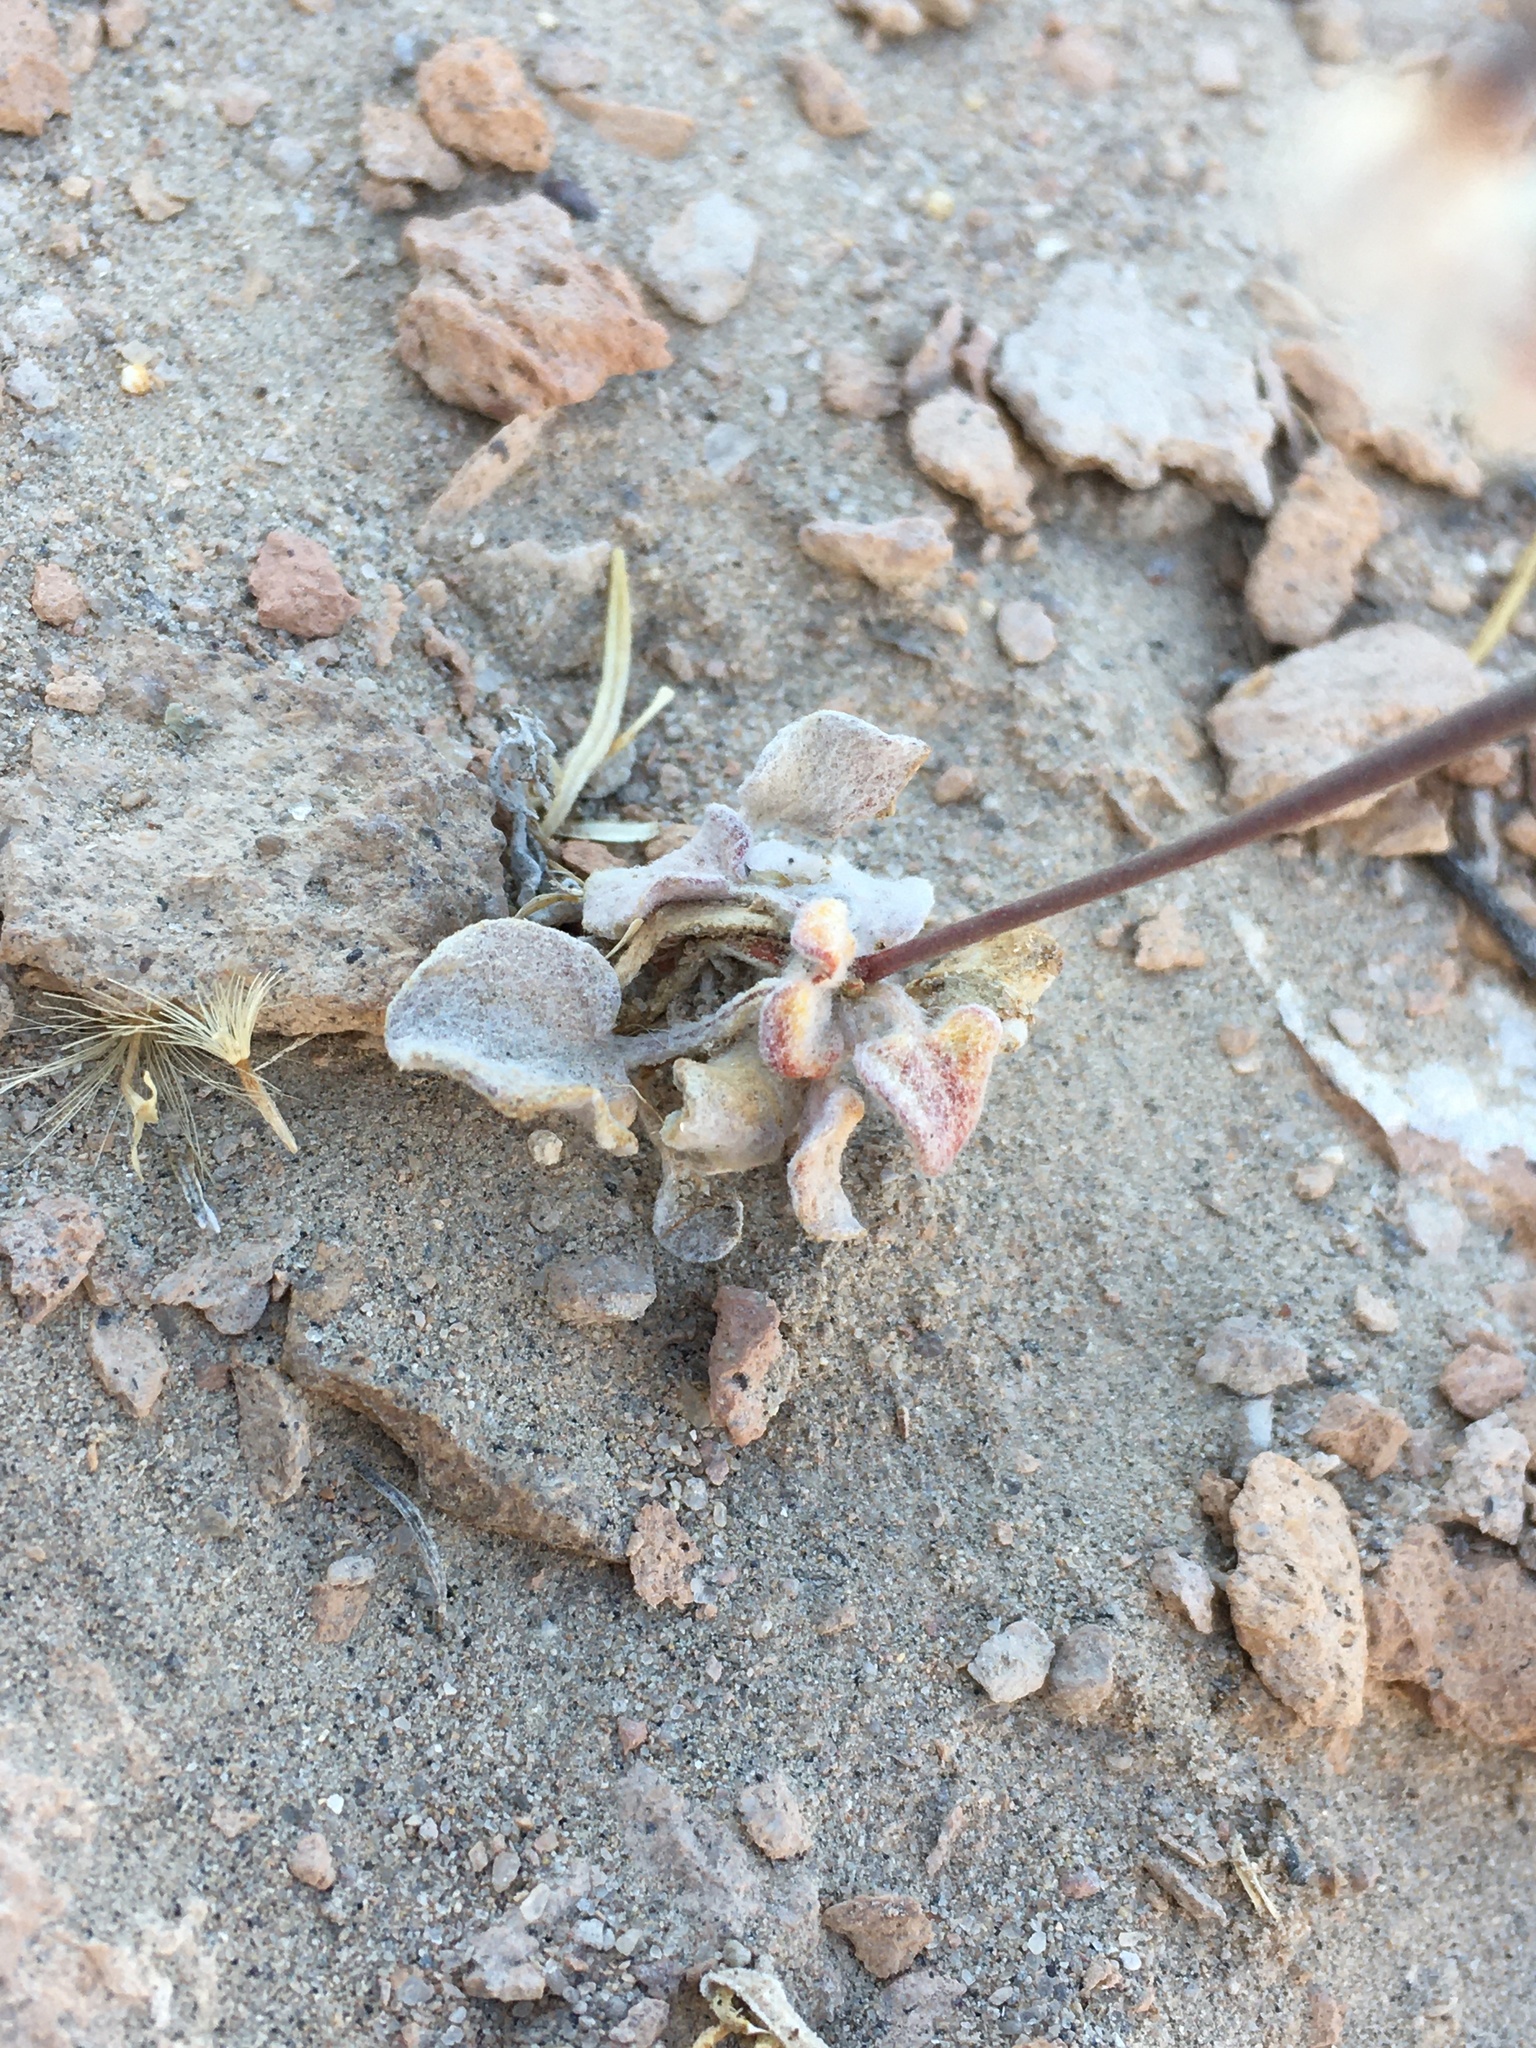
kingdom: Plantae
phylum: Tracheophyta
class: Magnoliopsida
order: Caryophyllales
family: Polygonaceae
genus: Eriogonum
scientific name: Eriogonum deflexum
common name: Skeleton-weed
